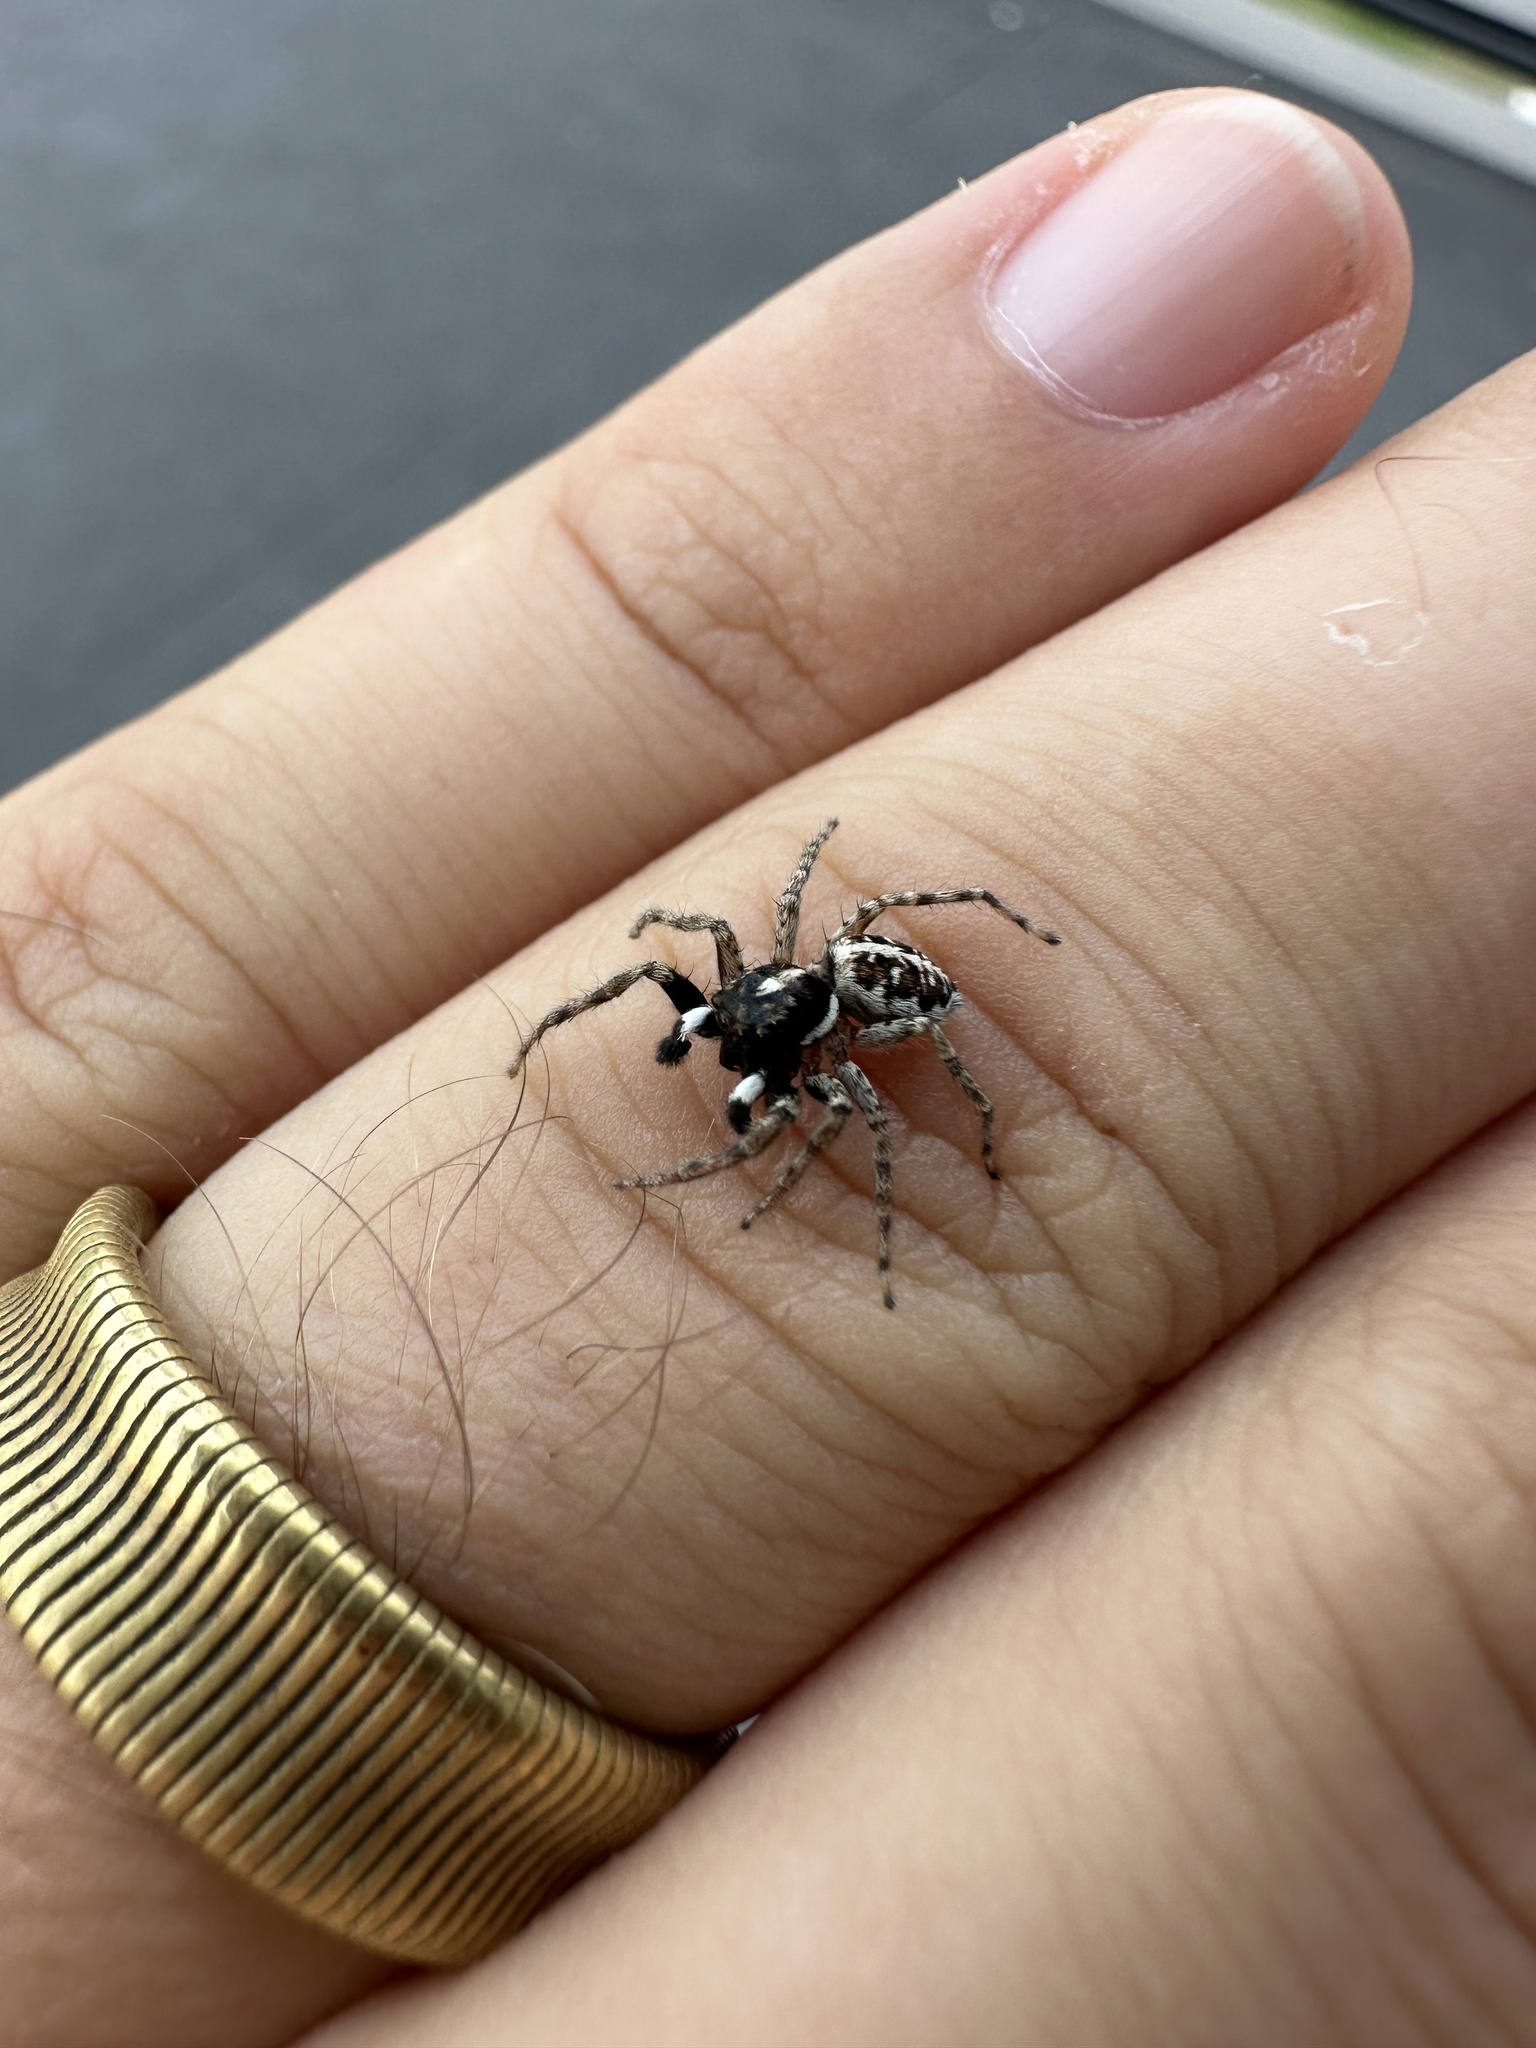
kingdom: Animalia
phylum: Arthropoda
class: Arachnida
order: Araneae
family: Salticidae
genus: Menemerus
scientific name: Menemerus semilimbatus
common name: Jumping spider
